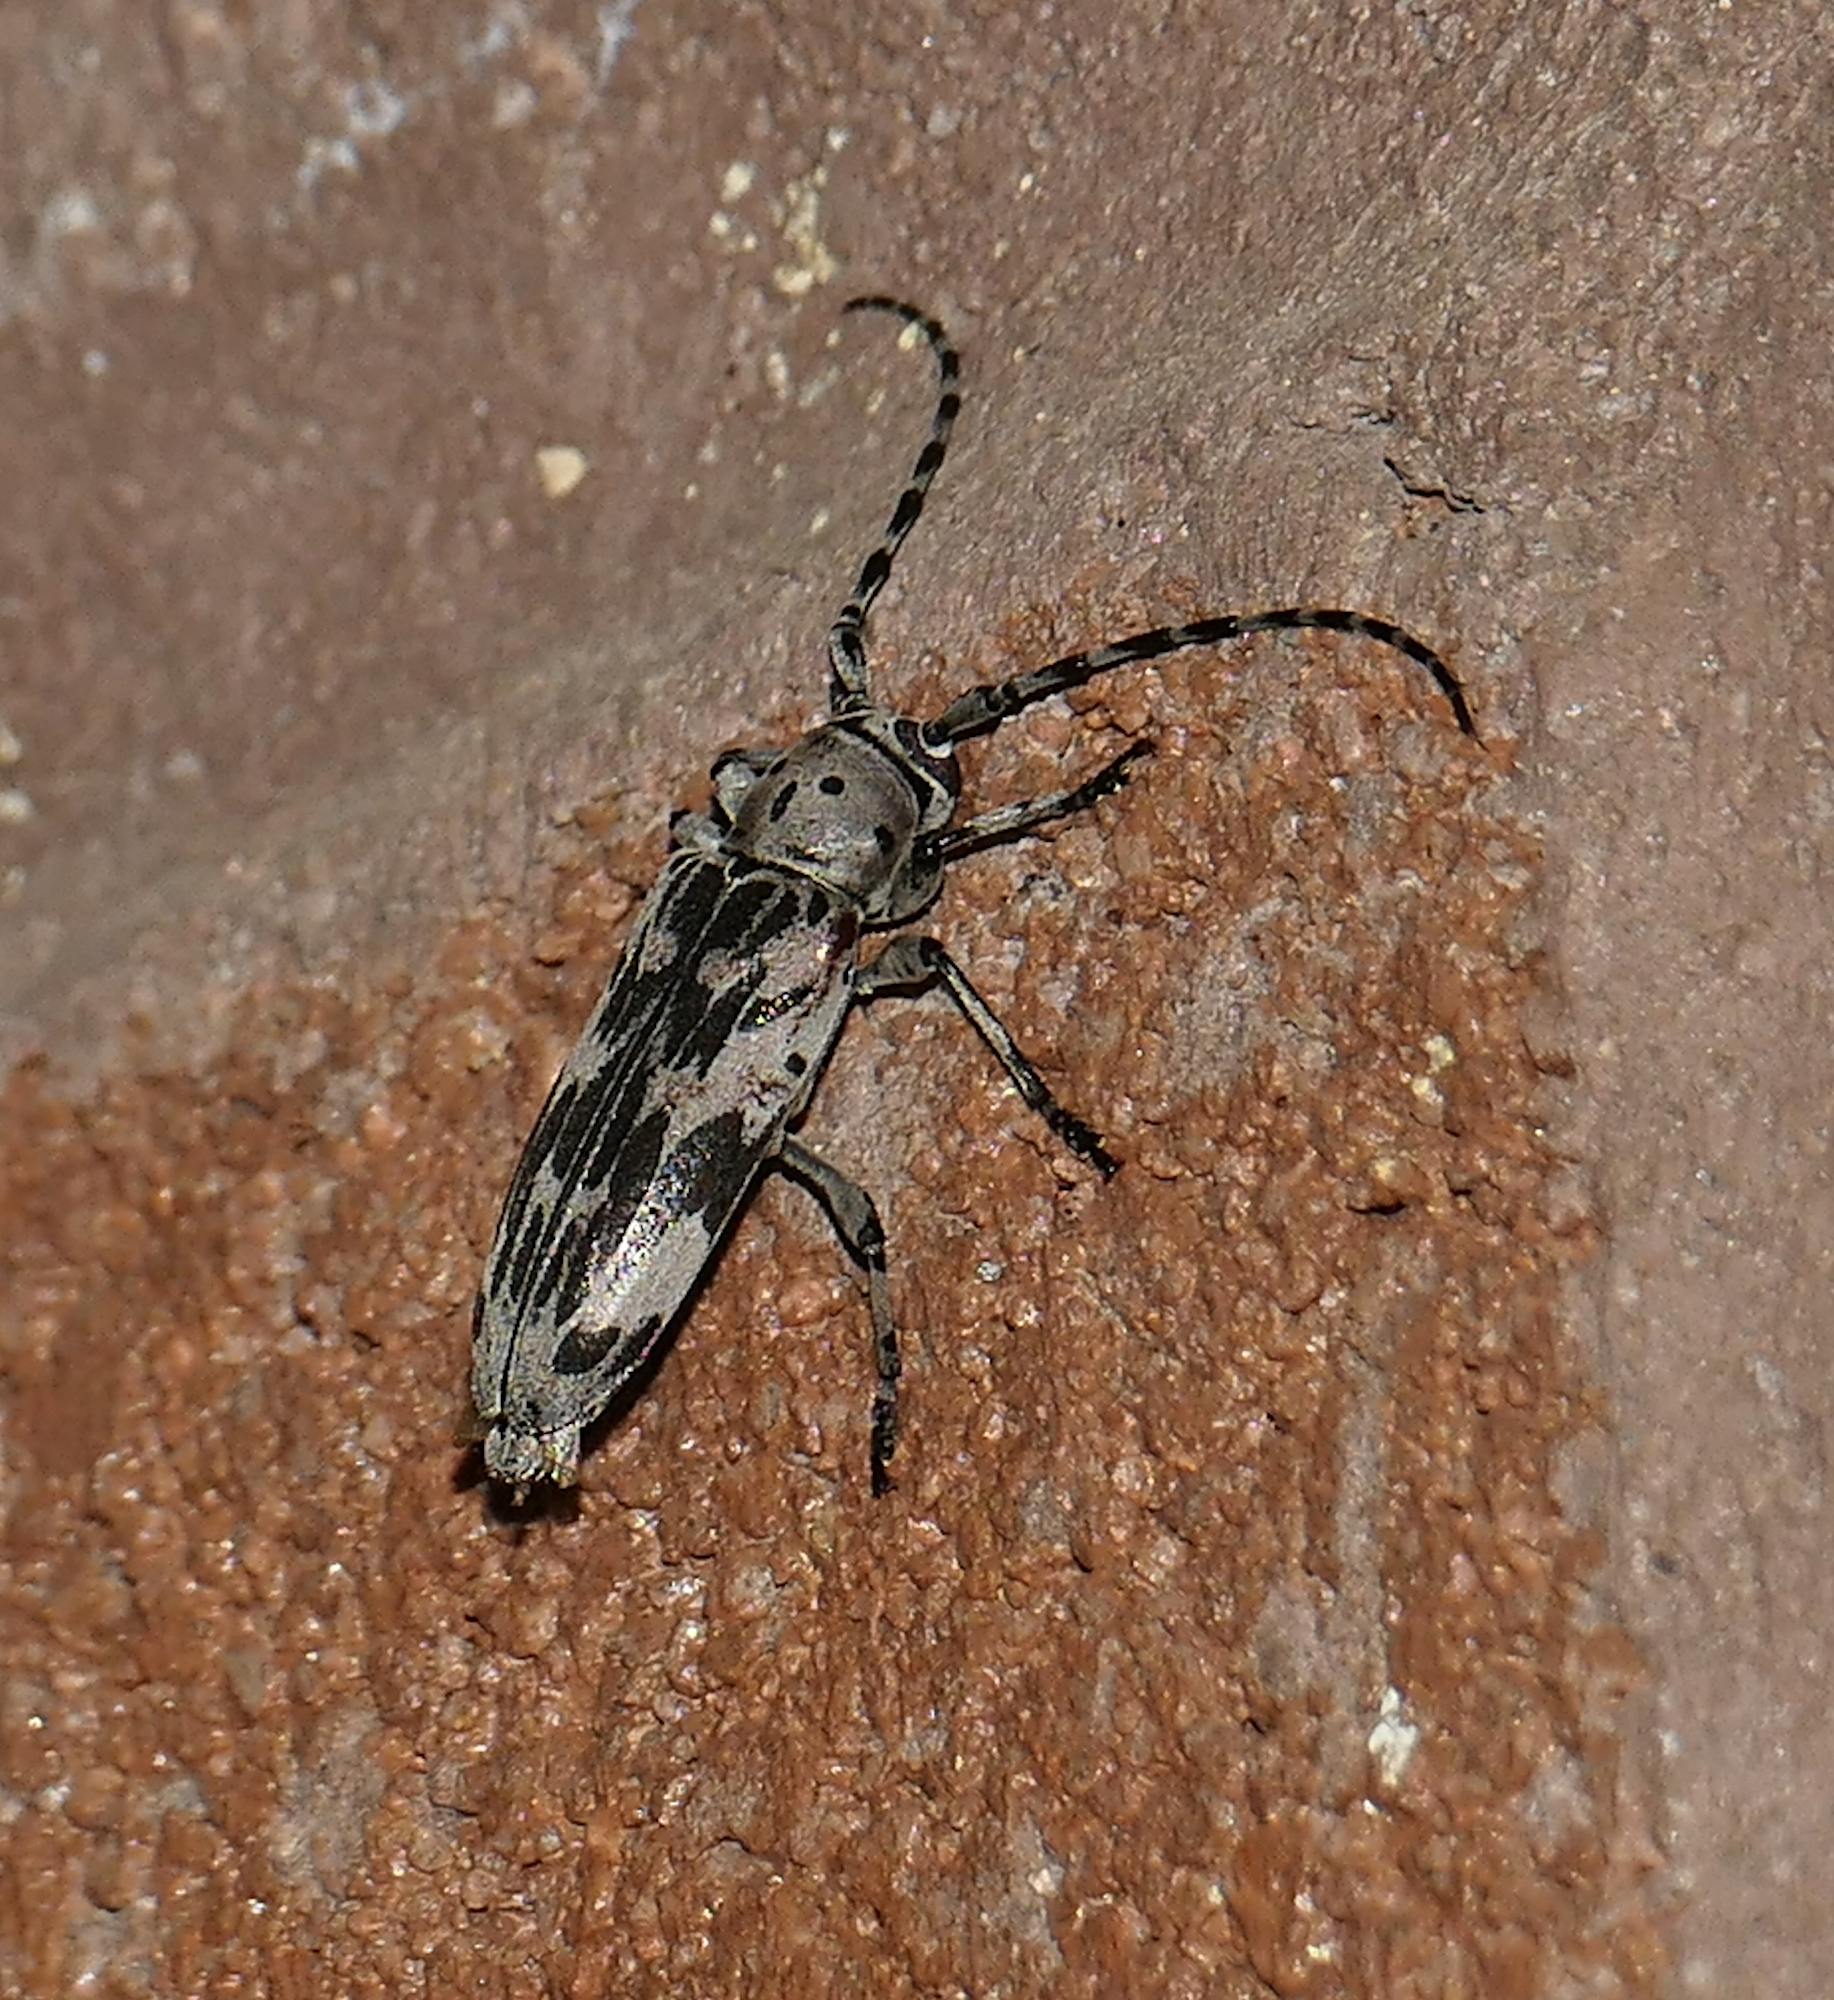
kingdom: Animalia
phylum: Arthropoda
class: Insecta
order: Coleoptera
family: Cerambycidae
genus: Tigrinestola
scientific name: Tigrinestola tigrina
